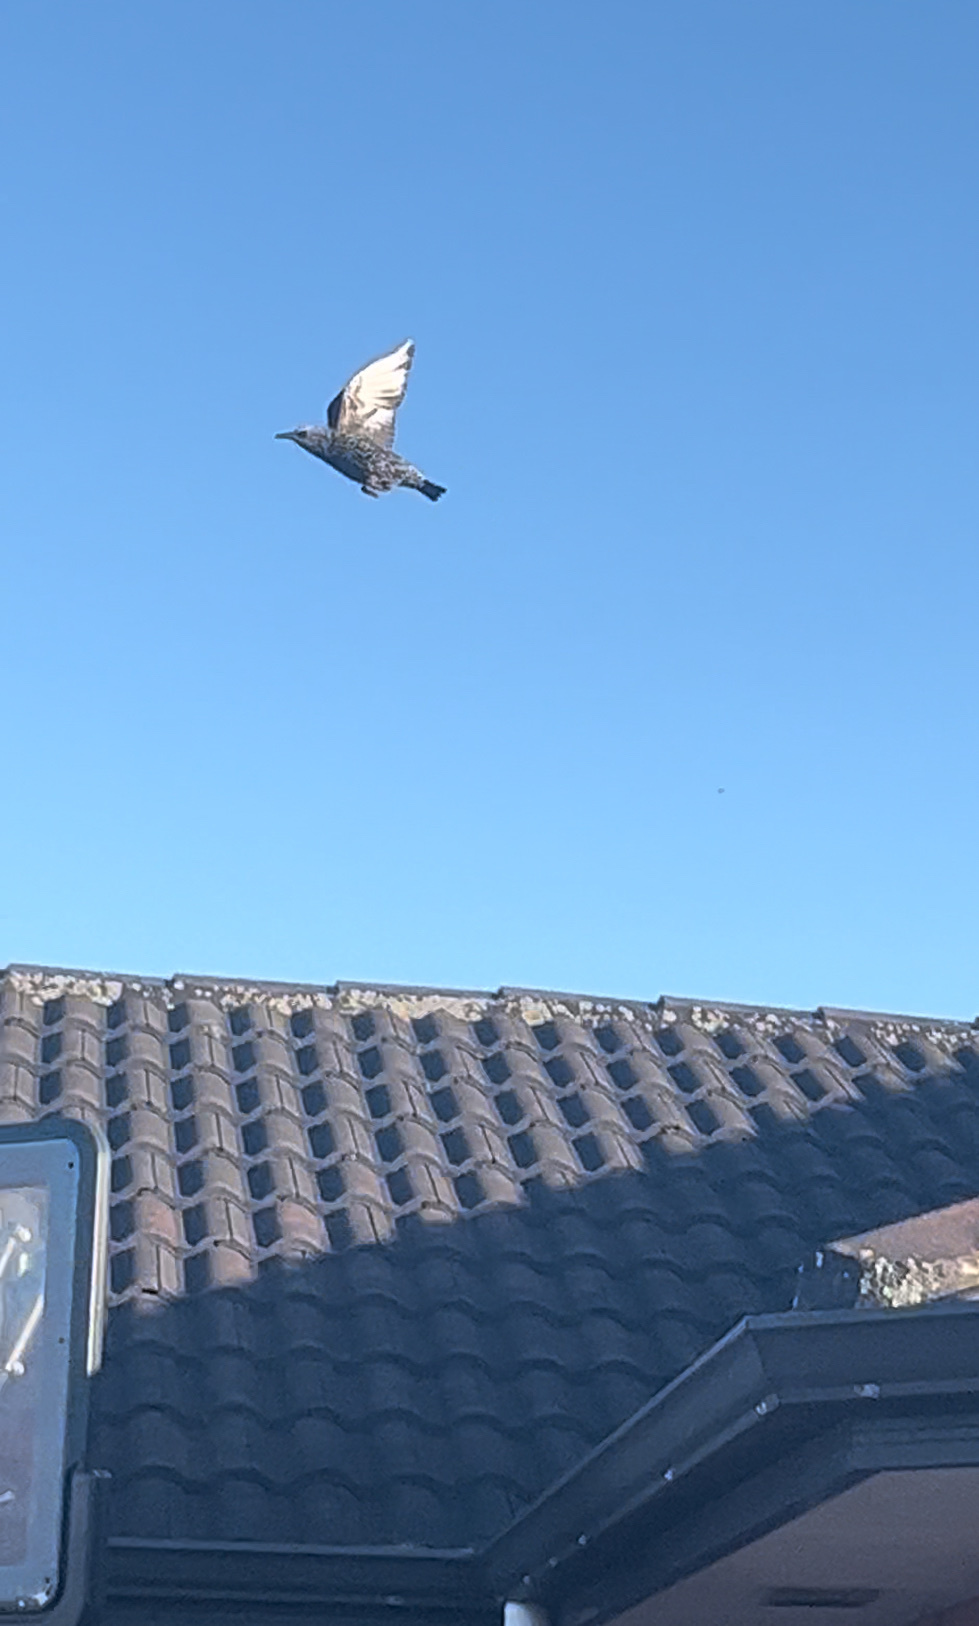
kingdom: Animalia
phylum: Chordata
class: Aves
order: Passeriformes
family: Sturnidae
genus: Sturnus
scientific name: Sturnus vulgaris
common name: Common starling
